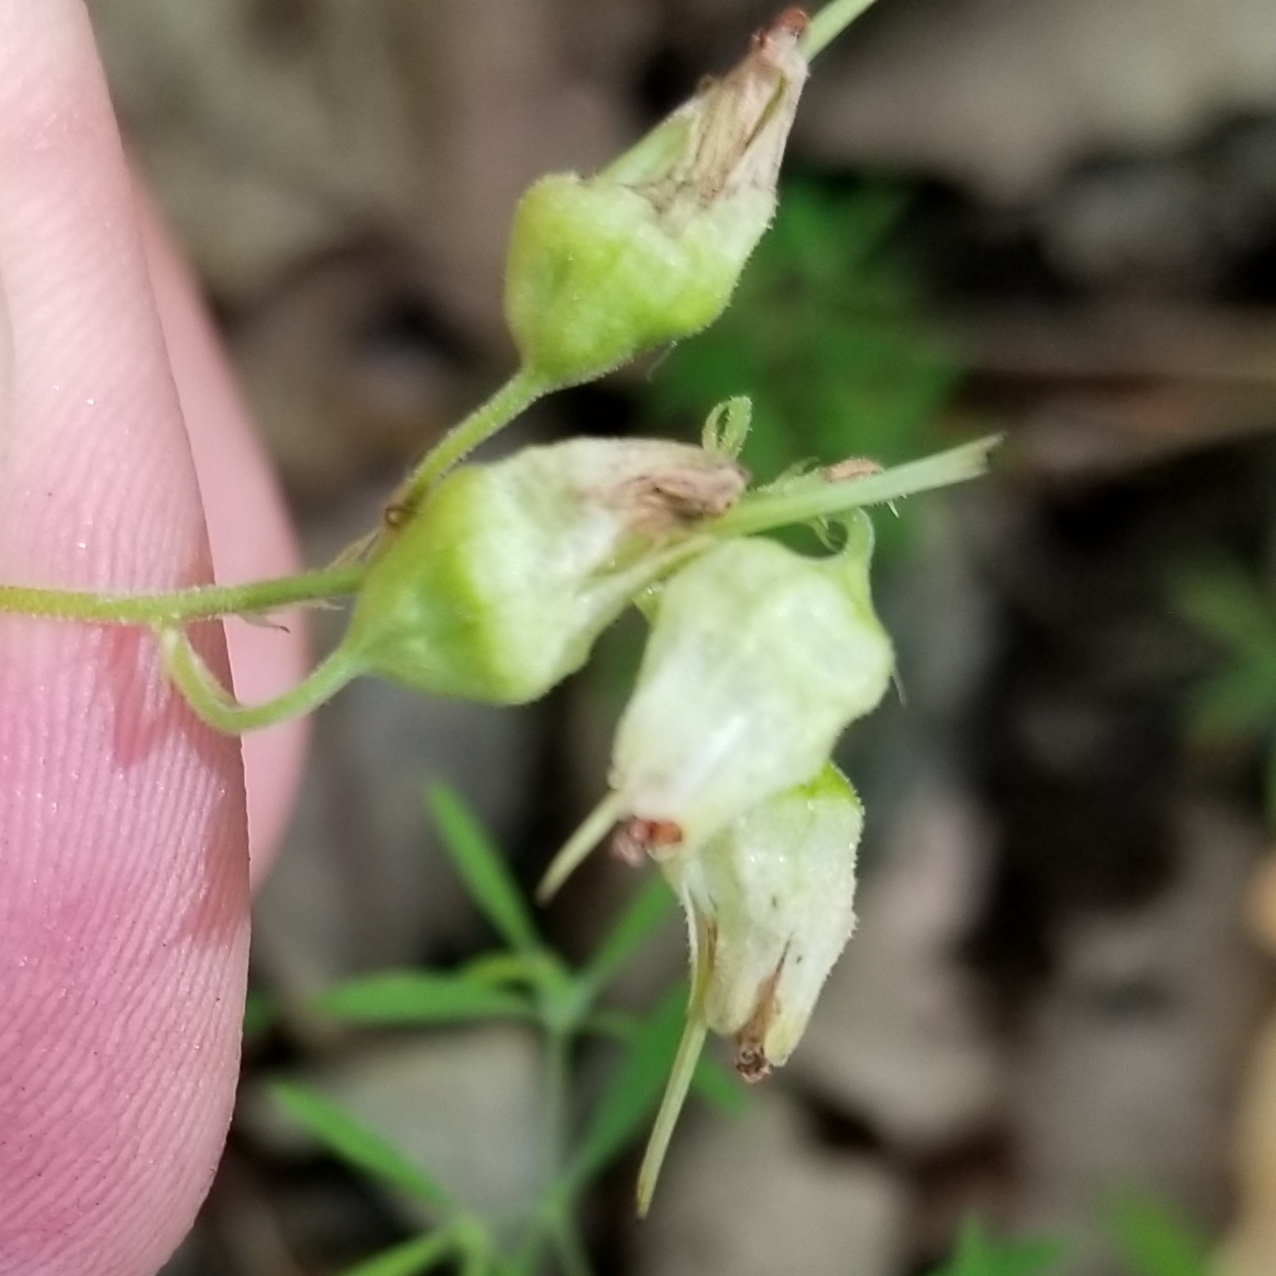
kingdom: Plantae
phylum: Tracheophyta
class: Magnoliopsida
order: Saxifragales
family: Saxifragaceae
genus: Heuchera
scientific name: Heuchera alba
